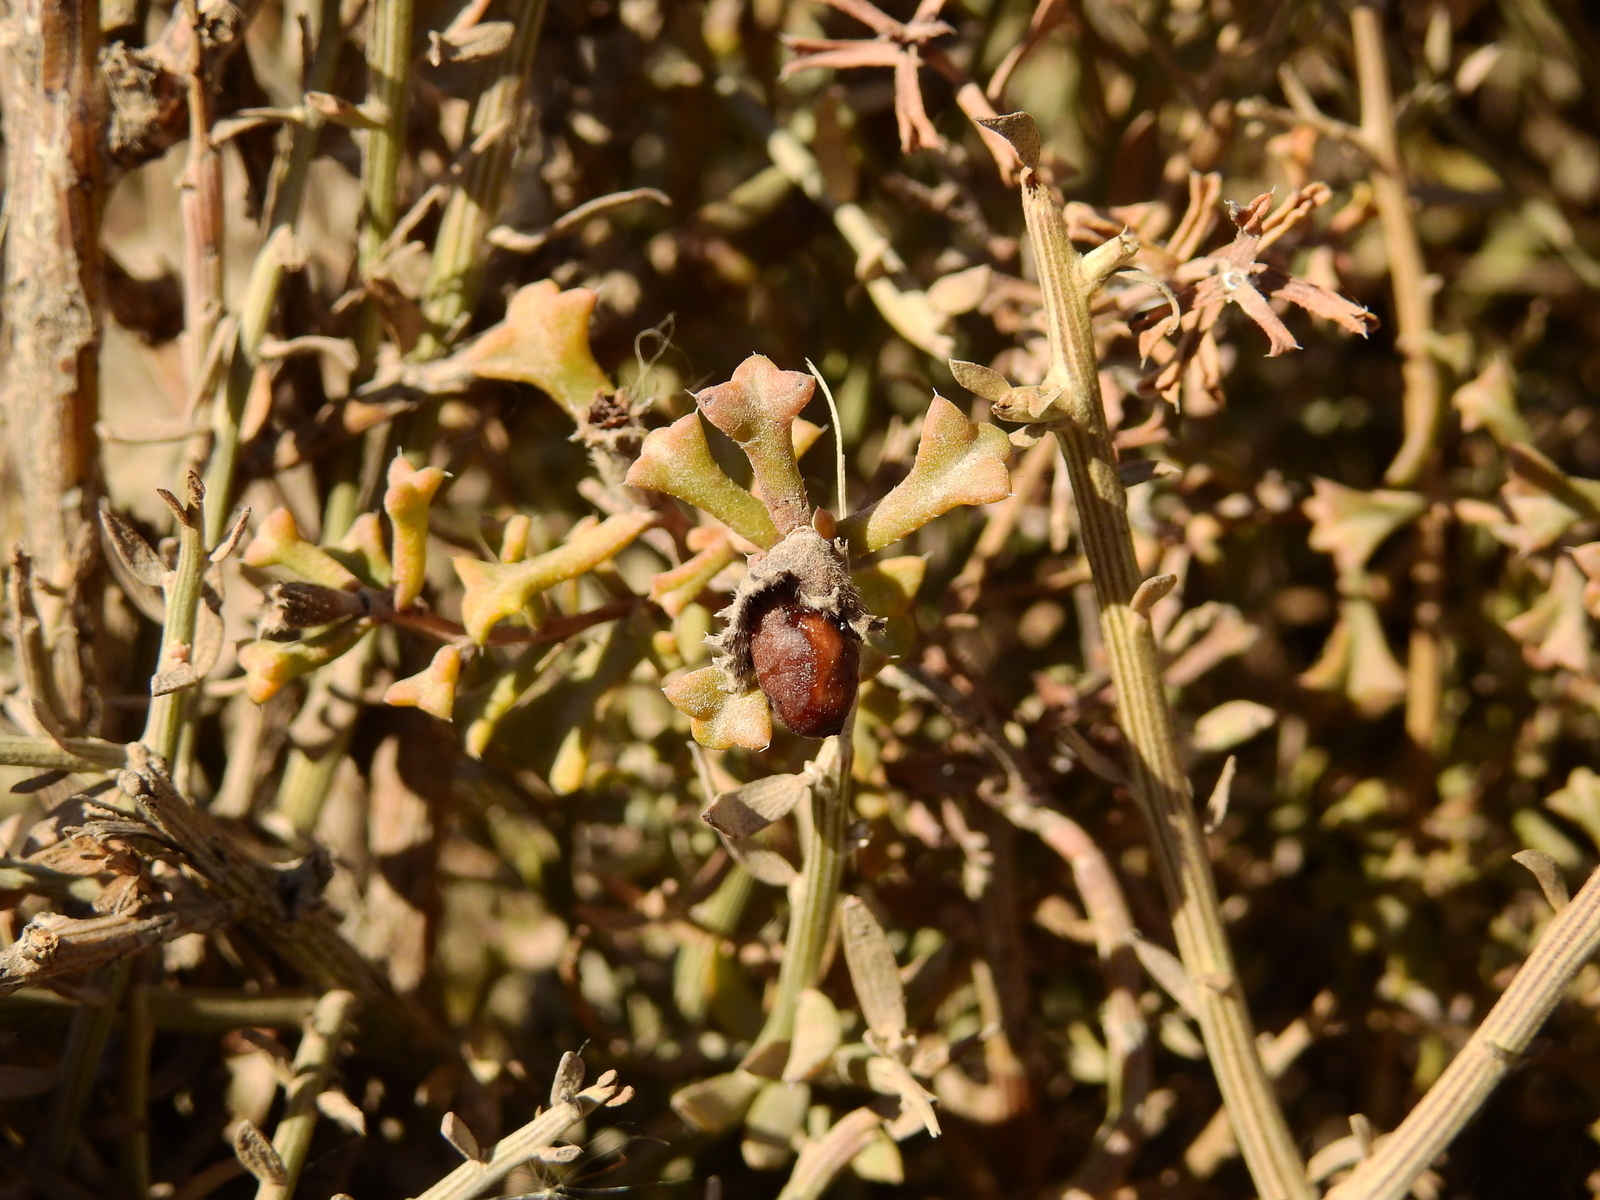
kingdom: Plantae
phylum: Tracheophyta
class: Magnoliopsida
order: Boraginales
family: Ehretiaceae
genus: Ehretia
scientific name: Ehretia cortesia
